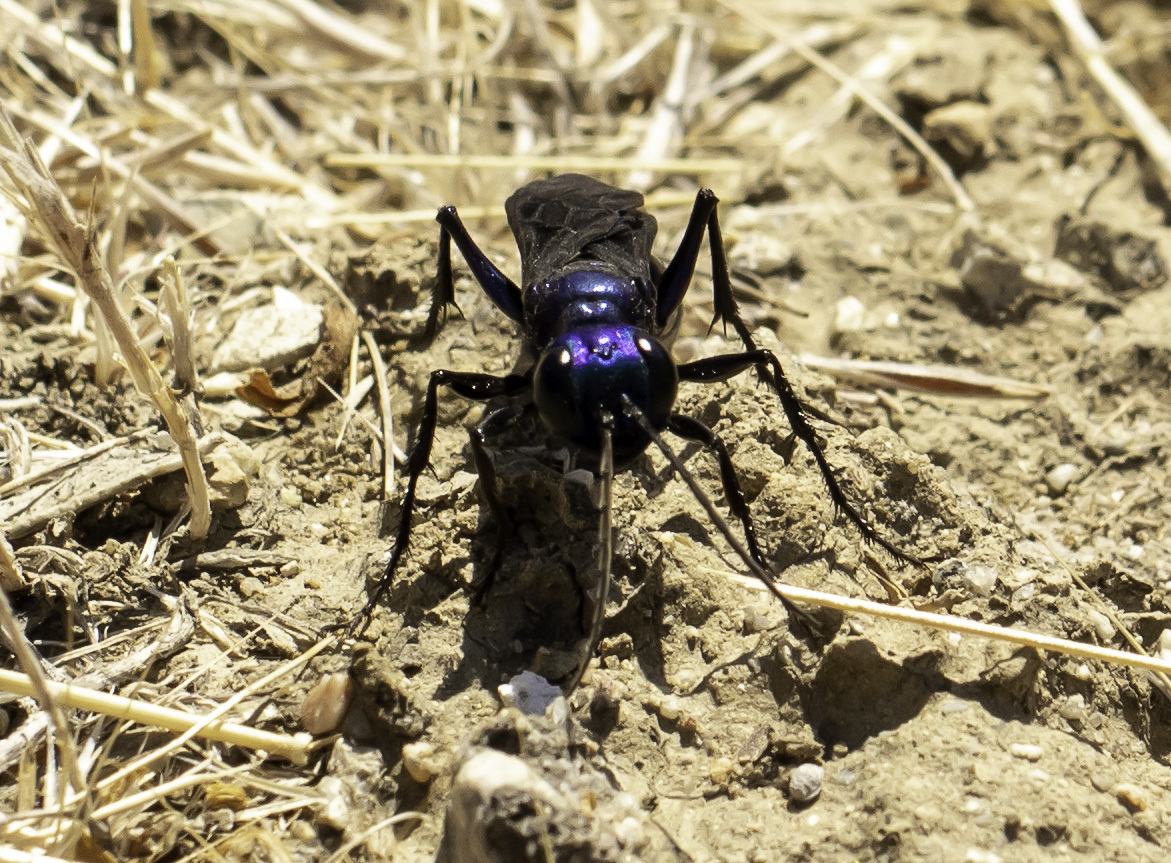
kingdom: Animalia
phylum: Arthropoda
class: Insecta
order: Hymenoptera
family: Sphecidae
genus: Chlorion
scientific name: Chlorion aerarium
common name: Steel-blue cricket hunter
